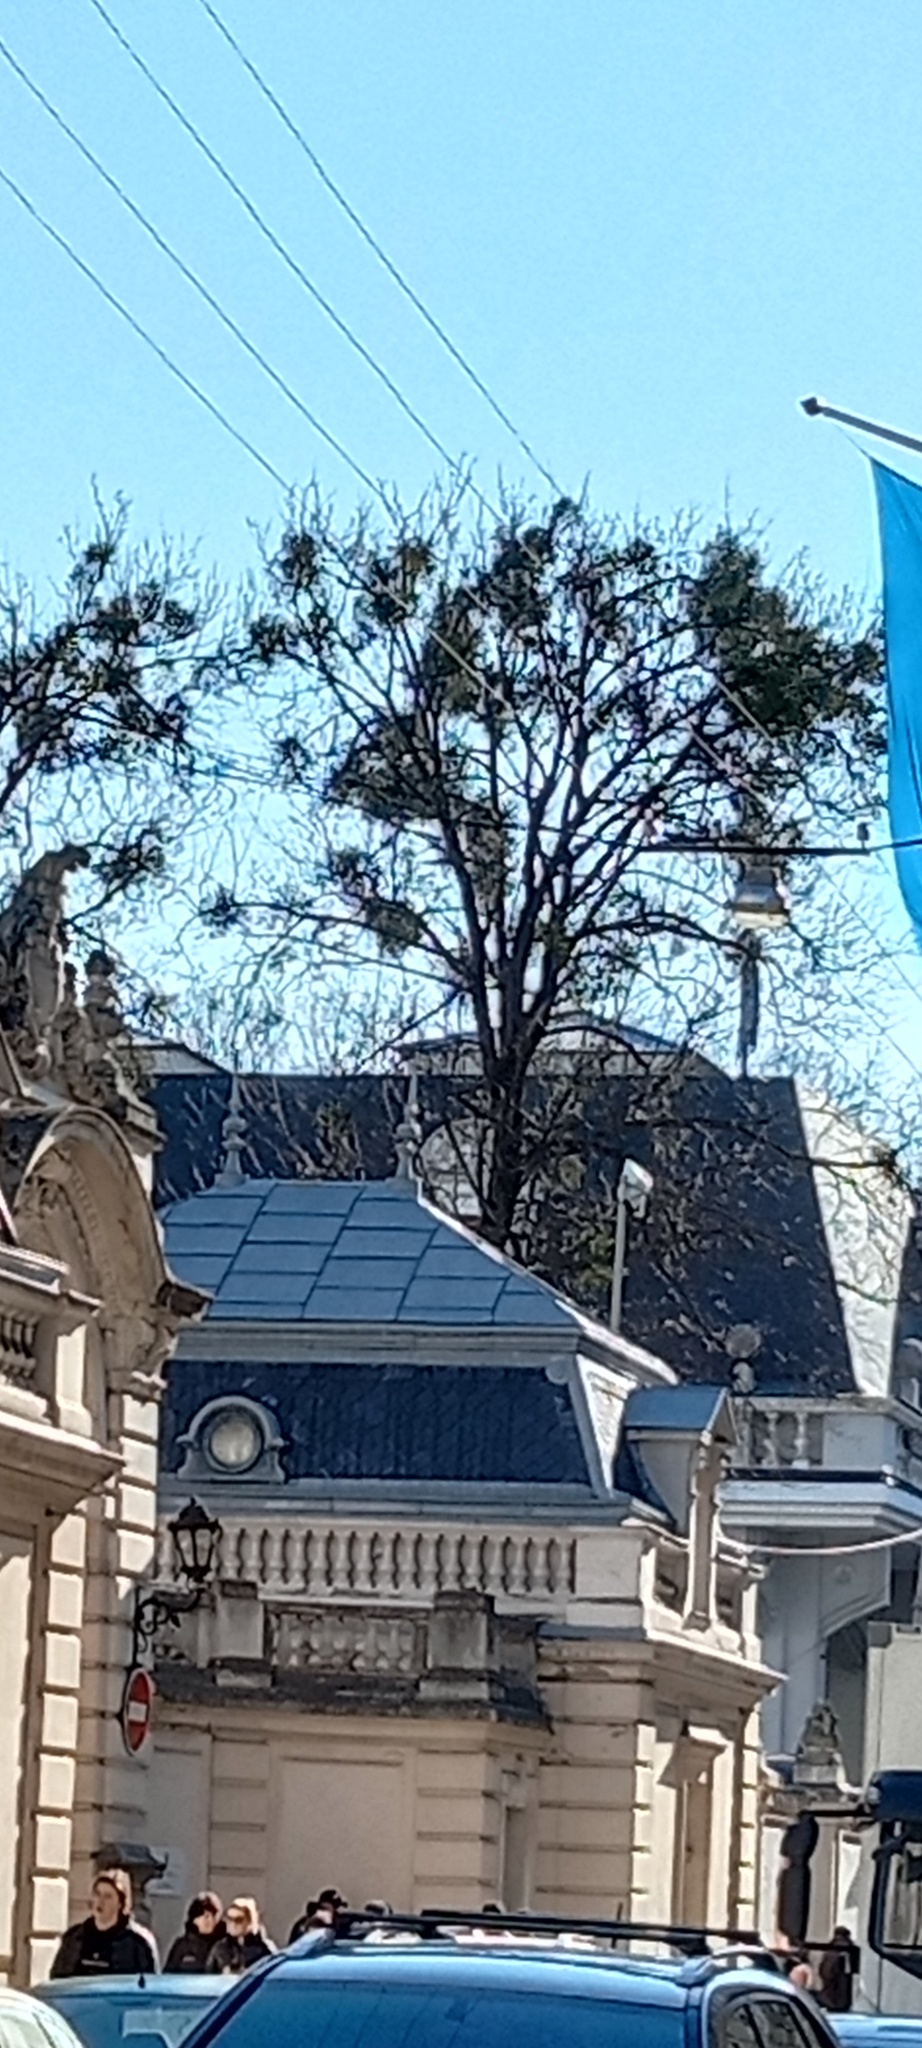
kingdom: Plantae
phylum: Tracheophyta
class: Magnoliopsida
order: Santalales
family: Viscaceae
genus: Viscum
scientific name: Viscum album
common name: Mistletoe
